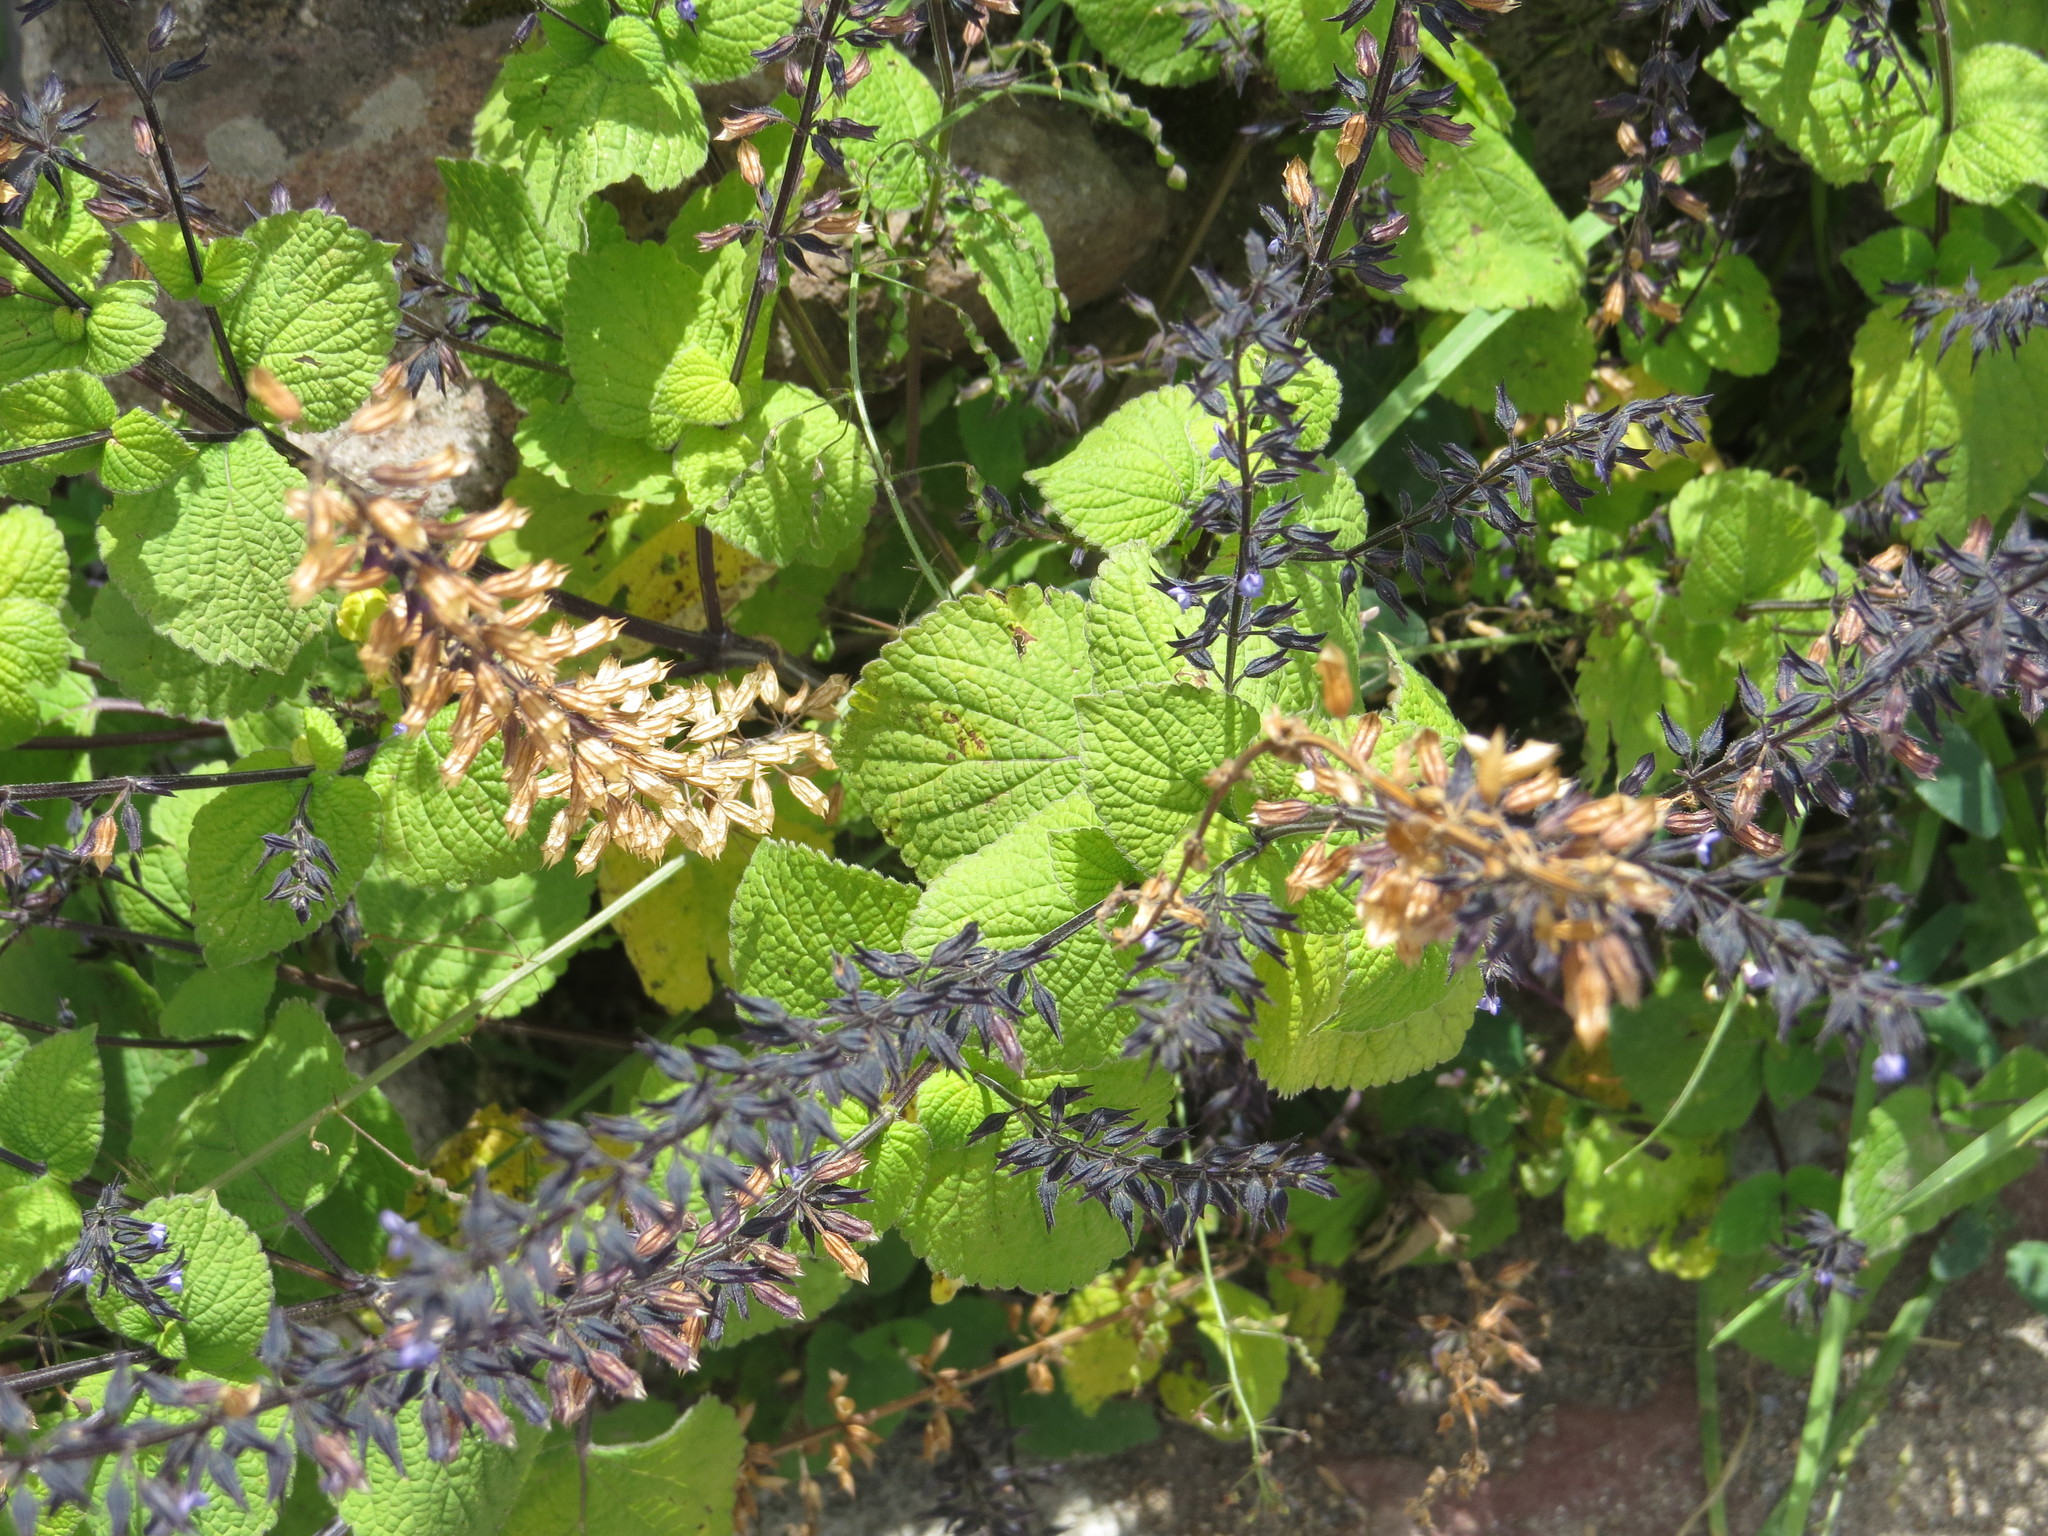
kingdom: Plantae
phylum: Tracheophyta
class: Magnoliopsida
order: Lamiales
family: Lamiaceae
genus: Salvia
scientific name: Salvia tiliifolia
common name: Lindenleaf sage
